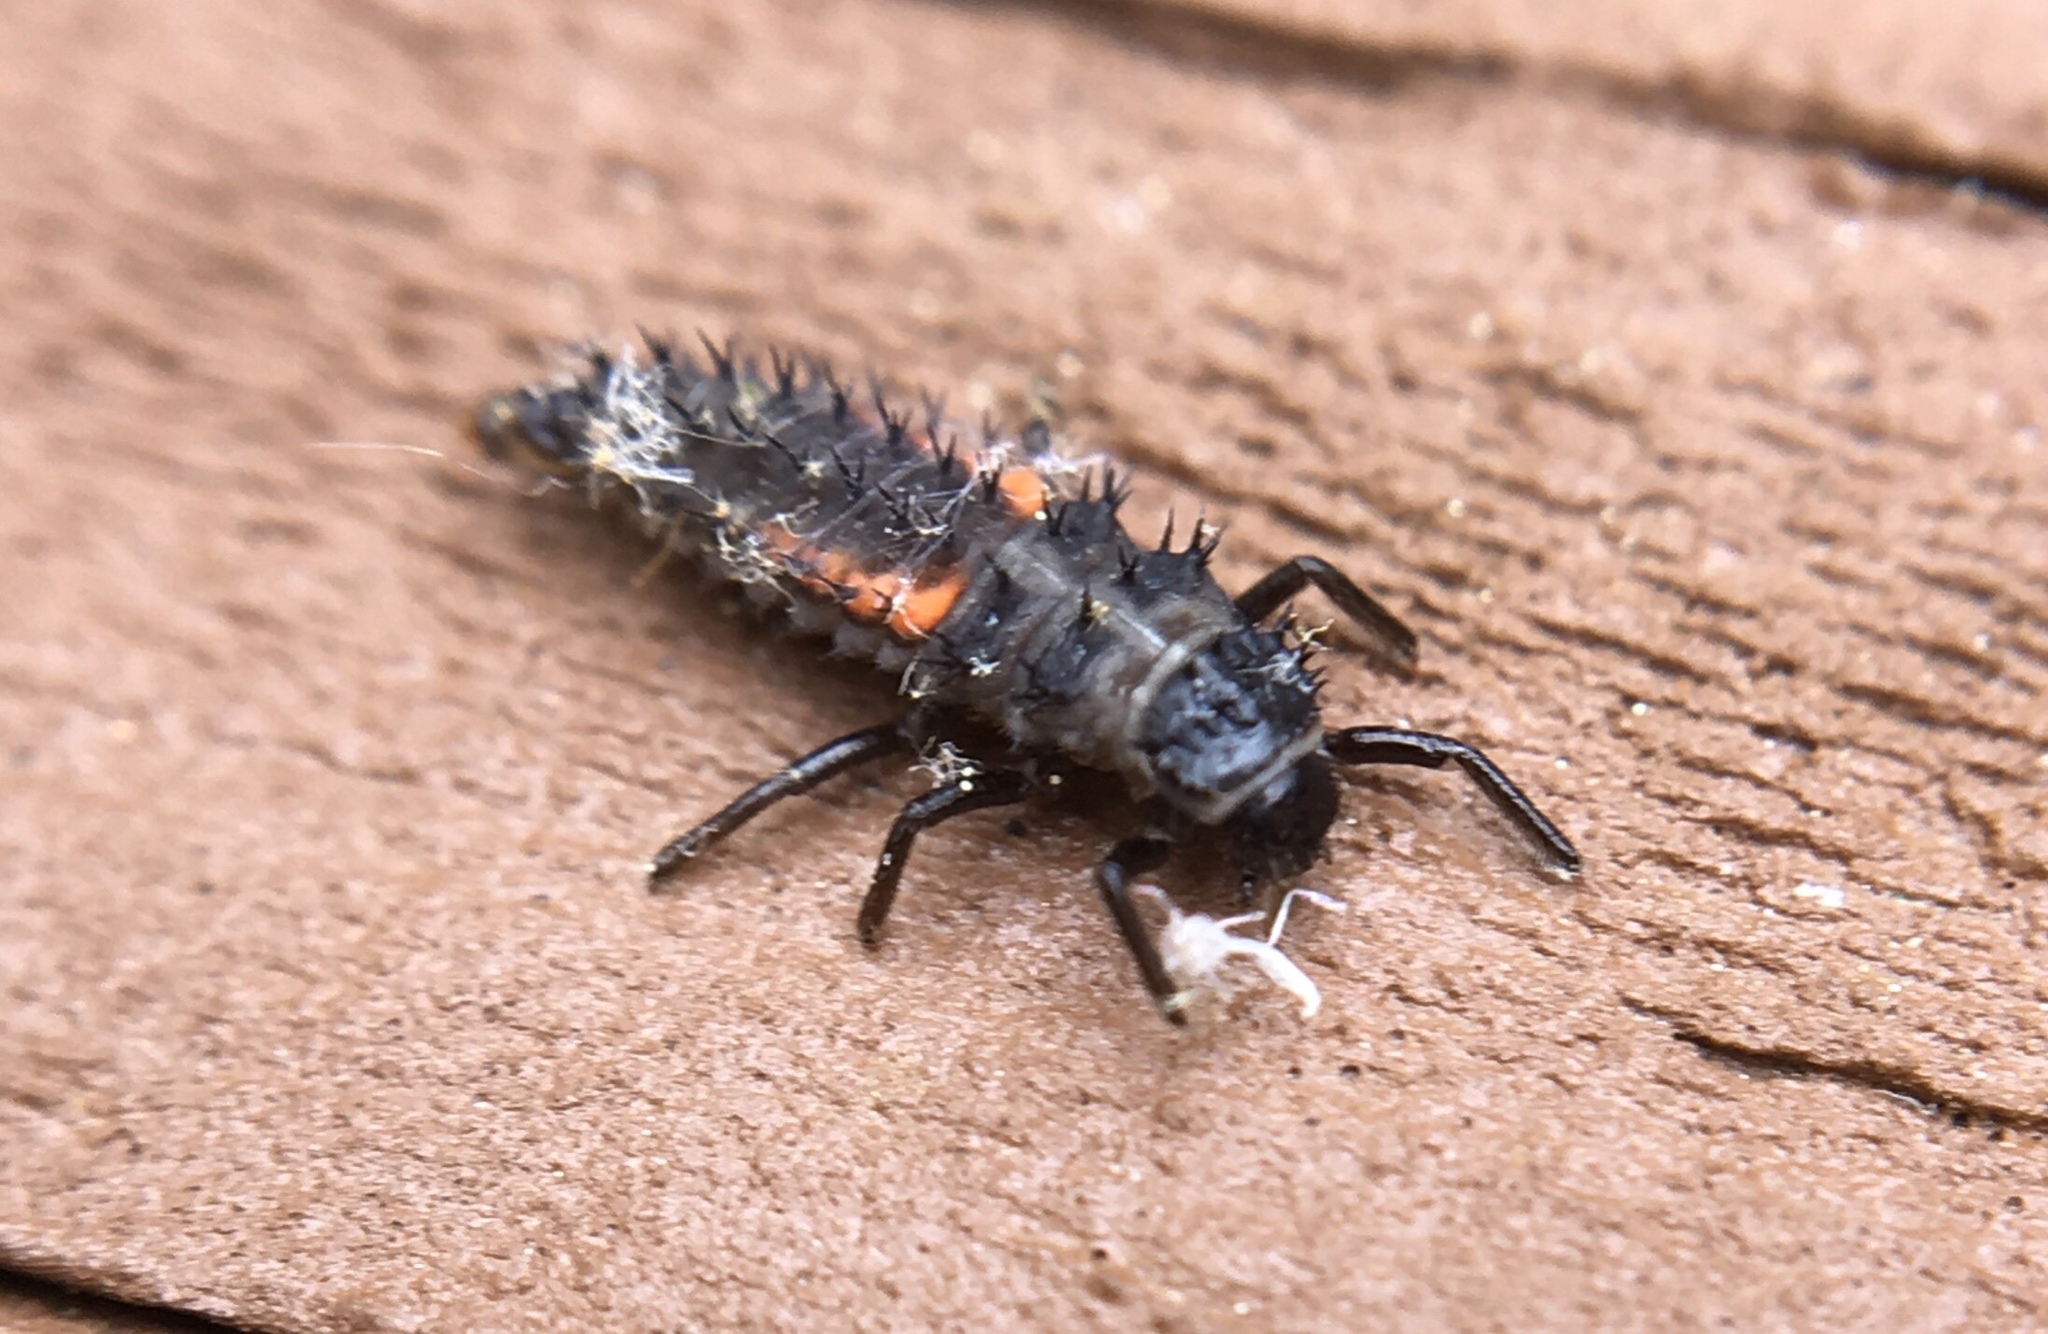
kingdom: Animalia
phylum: Arthropoda
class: Insecta
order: Coleoptera
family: Coccinellidae
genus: Harmonia
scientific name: Harmonia axyridis
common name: Harlequin ladybird
